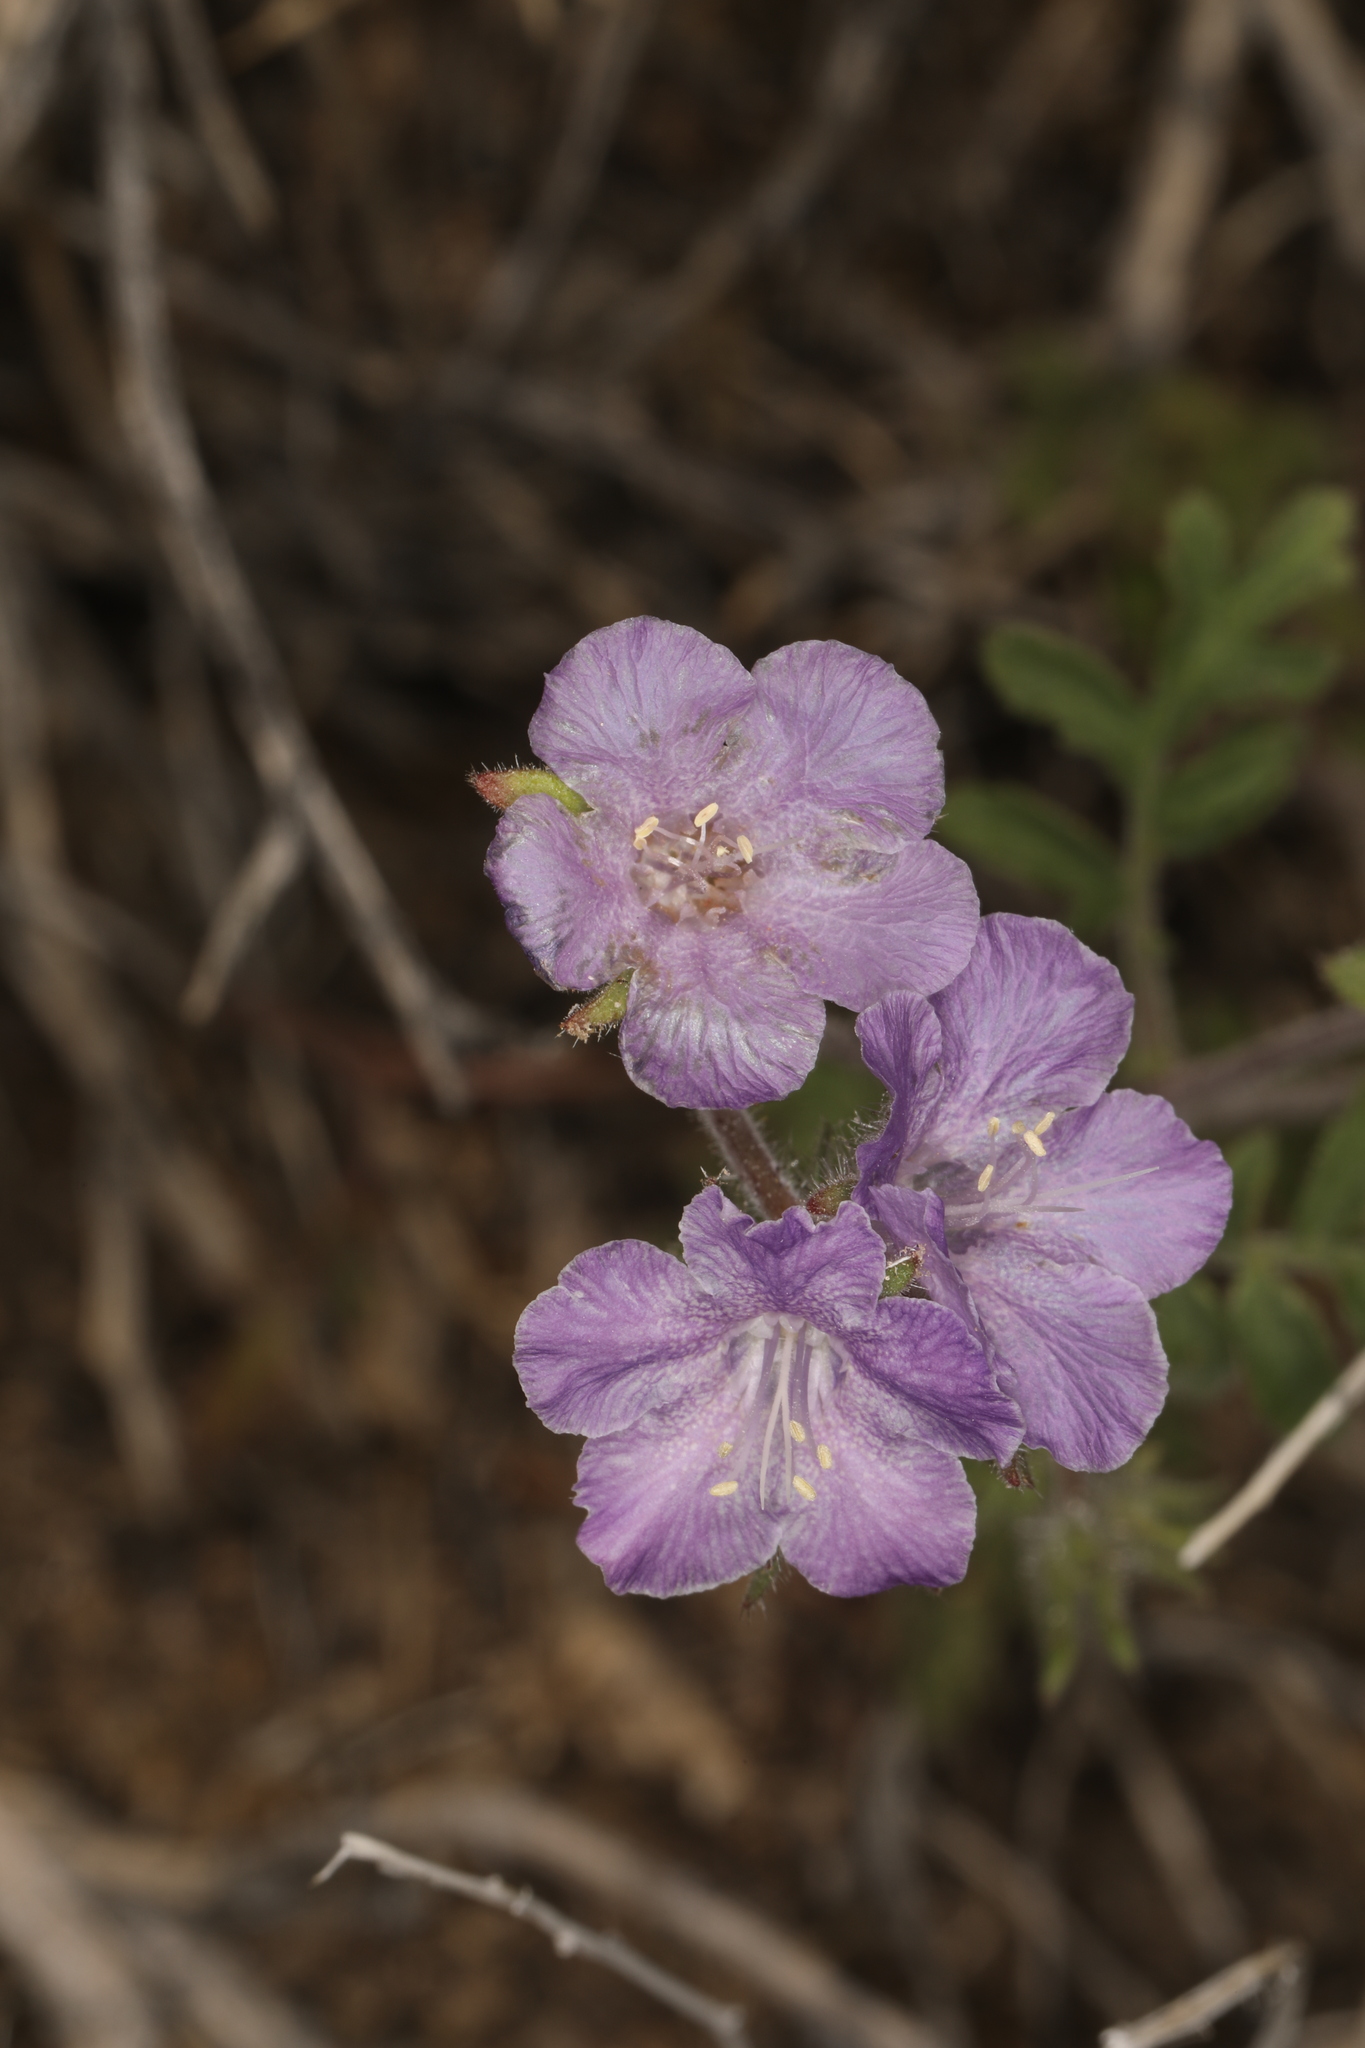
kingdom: Plantae
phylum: Tracheophyta
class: Magnoliopsida
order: Boraginales
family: Hydrophyllaceae
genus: Phacelia
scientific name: Phacelia vallis-mortae
